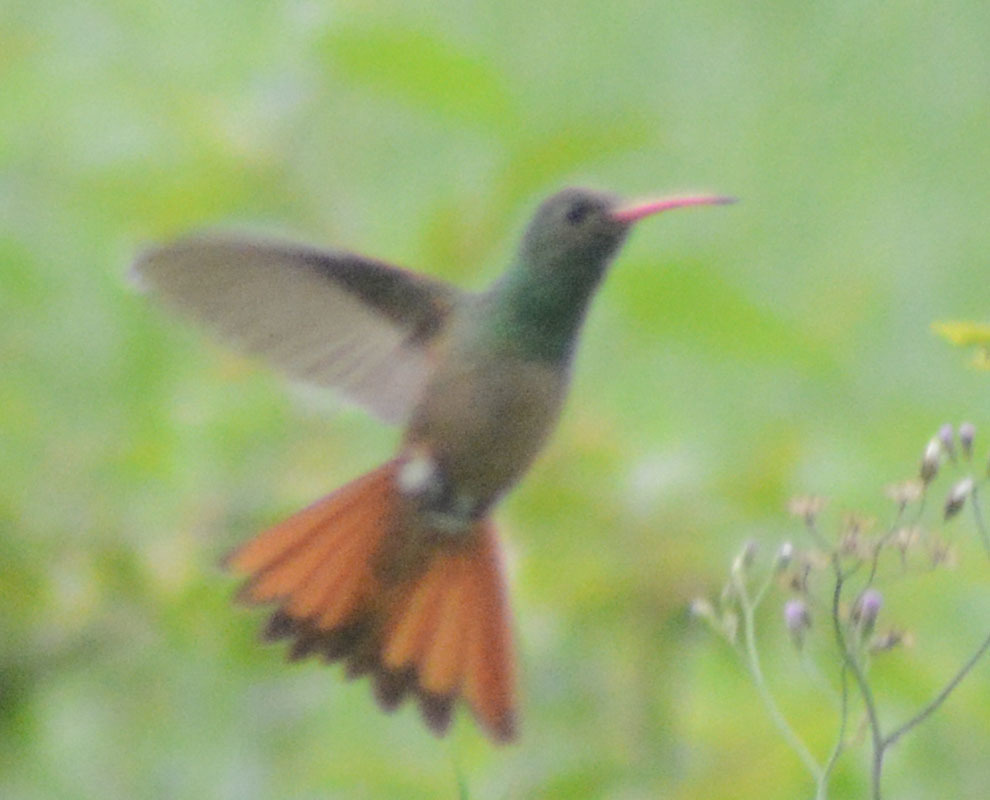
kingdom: Animalia
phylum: Chordata
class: Aves
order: Apodiformes
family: Trochilidae
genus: Amazilia
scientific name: Amazilia yucatanensis
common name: Buff-bellied hummingbird
